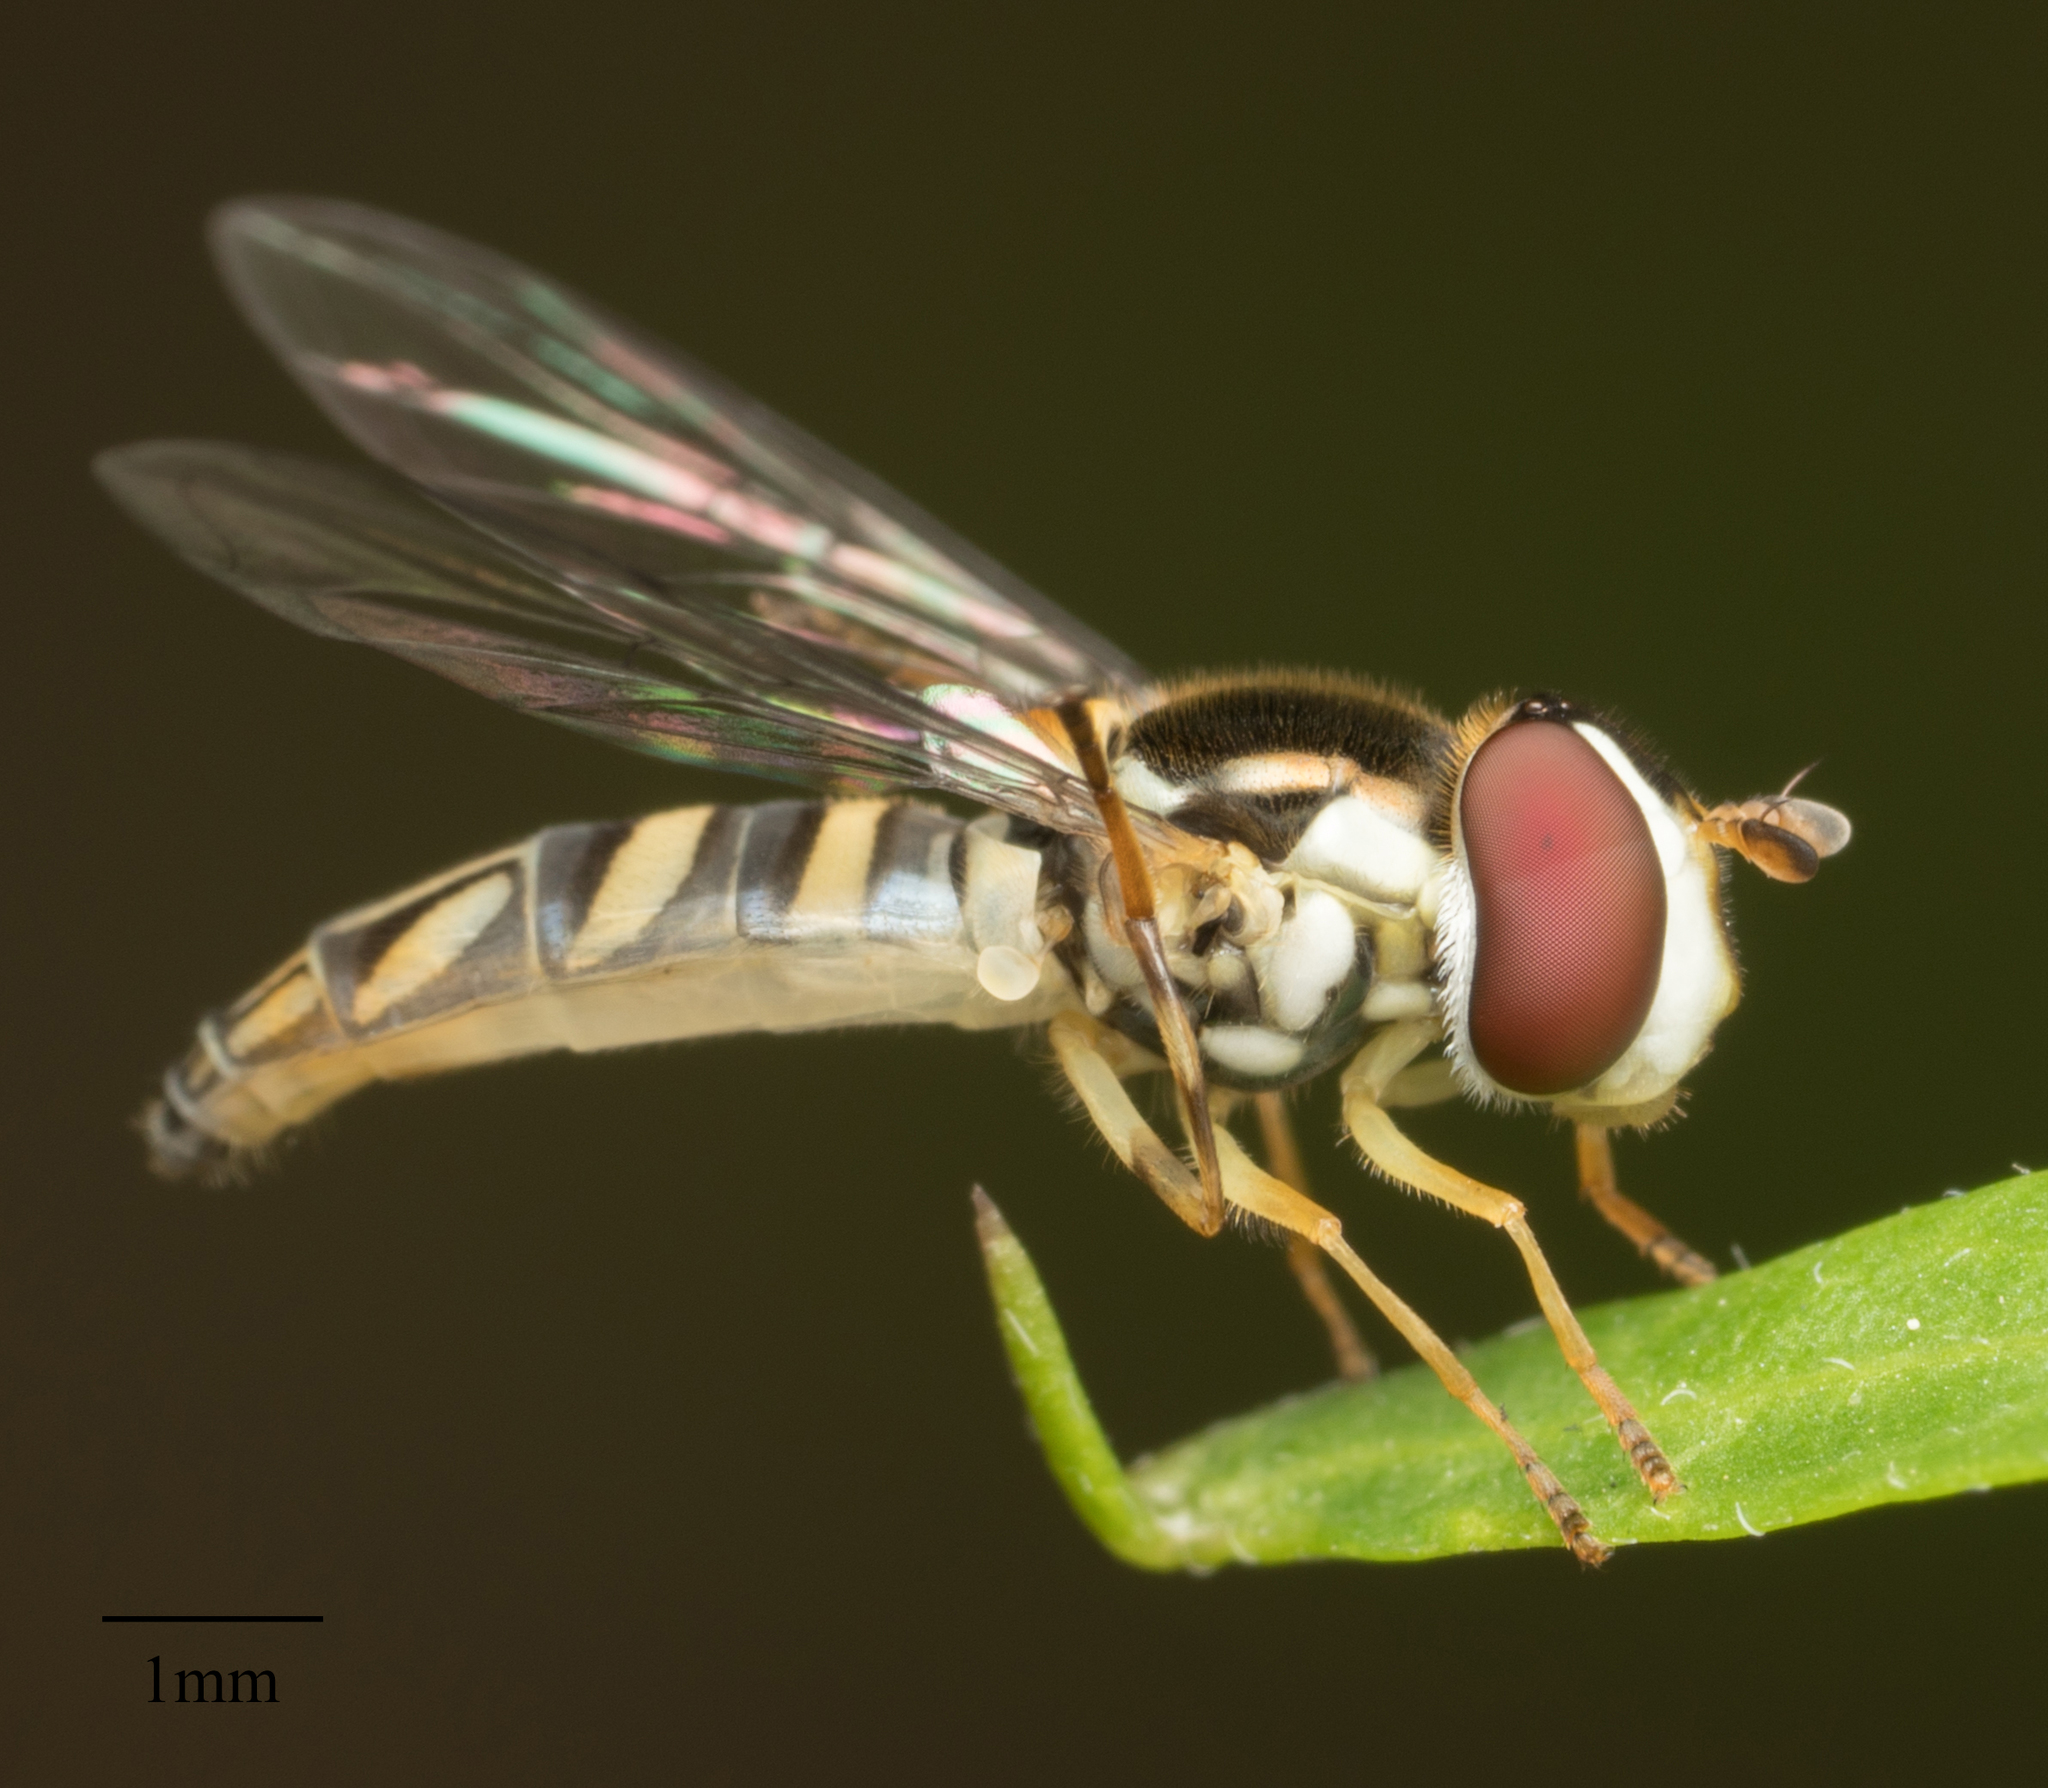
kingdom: Animalia
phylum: Arthropoda
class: Insecta
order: Diptera
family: Syrphidae
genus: Allograpta
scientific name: Allograpta obliqua
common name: Common oblique syrphid
